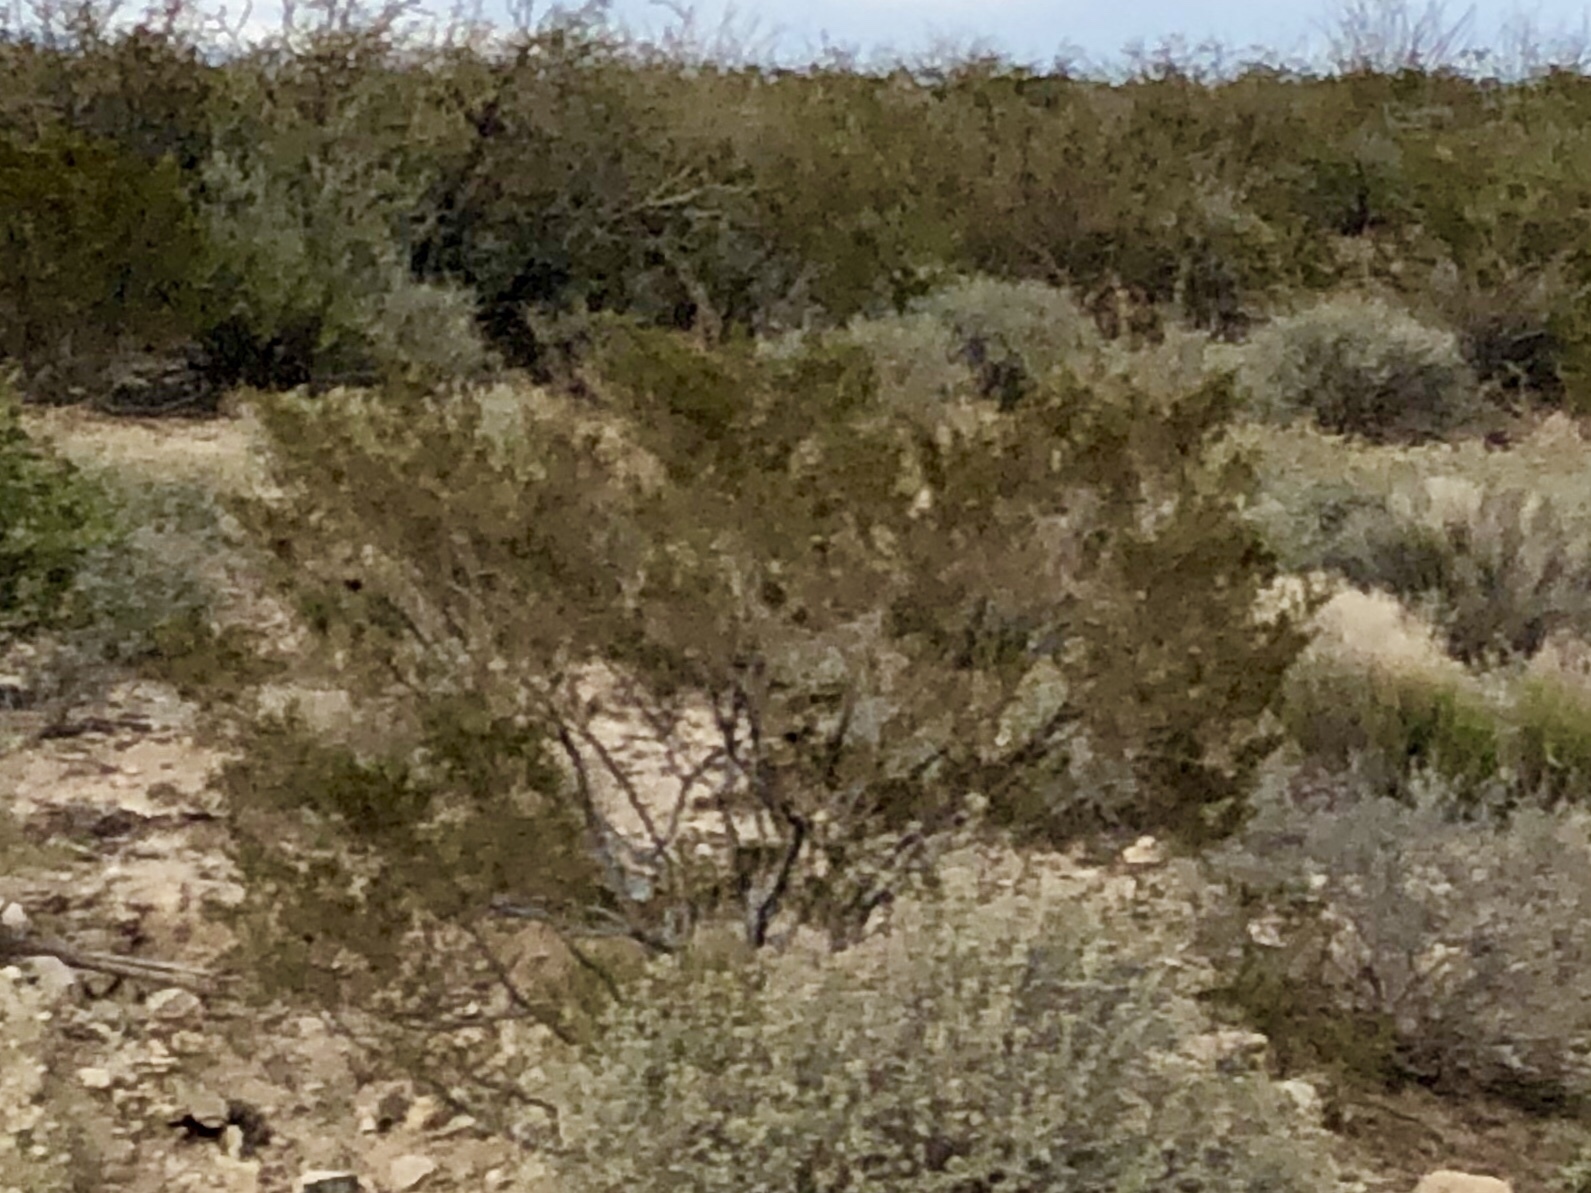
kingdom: Plantae
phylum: Tracheophyta
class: Magnoliopsida
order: Zygophyllales
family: Zygophyllaceae
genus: Larrea
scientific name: Larrea tridentata
